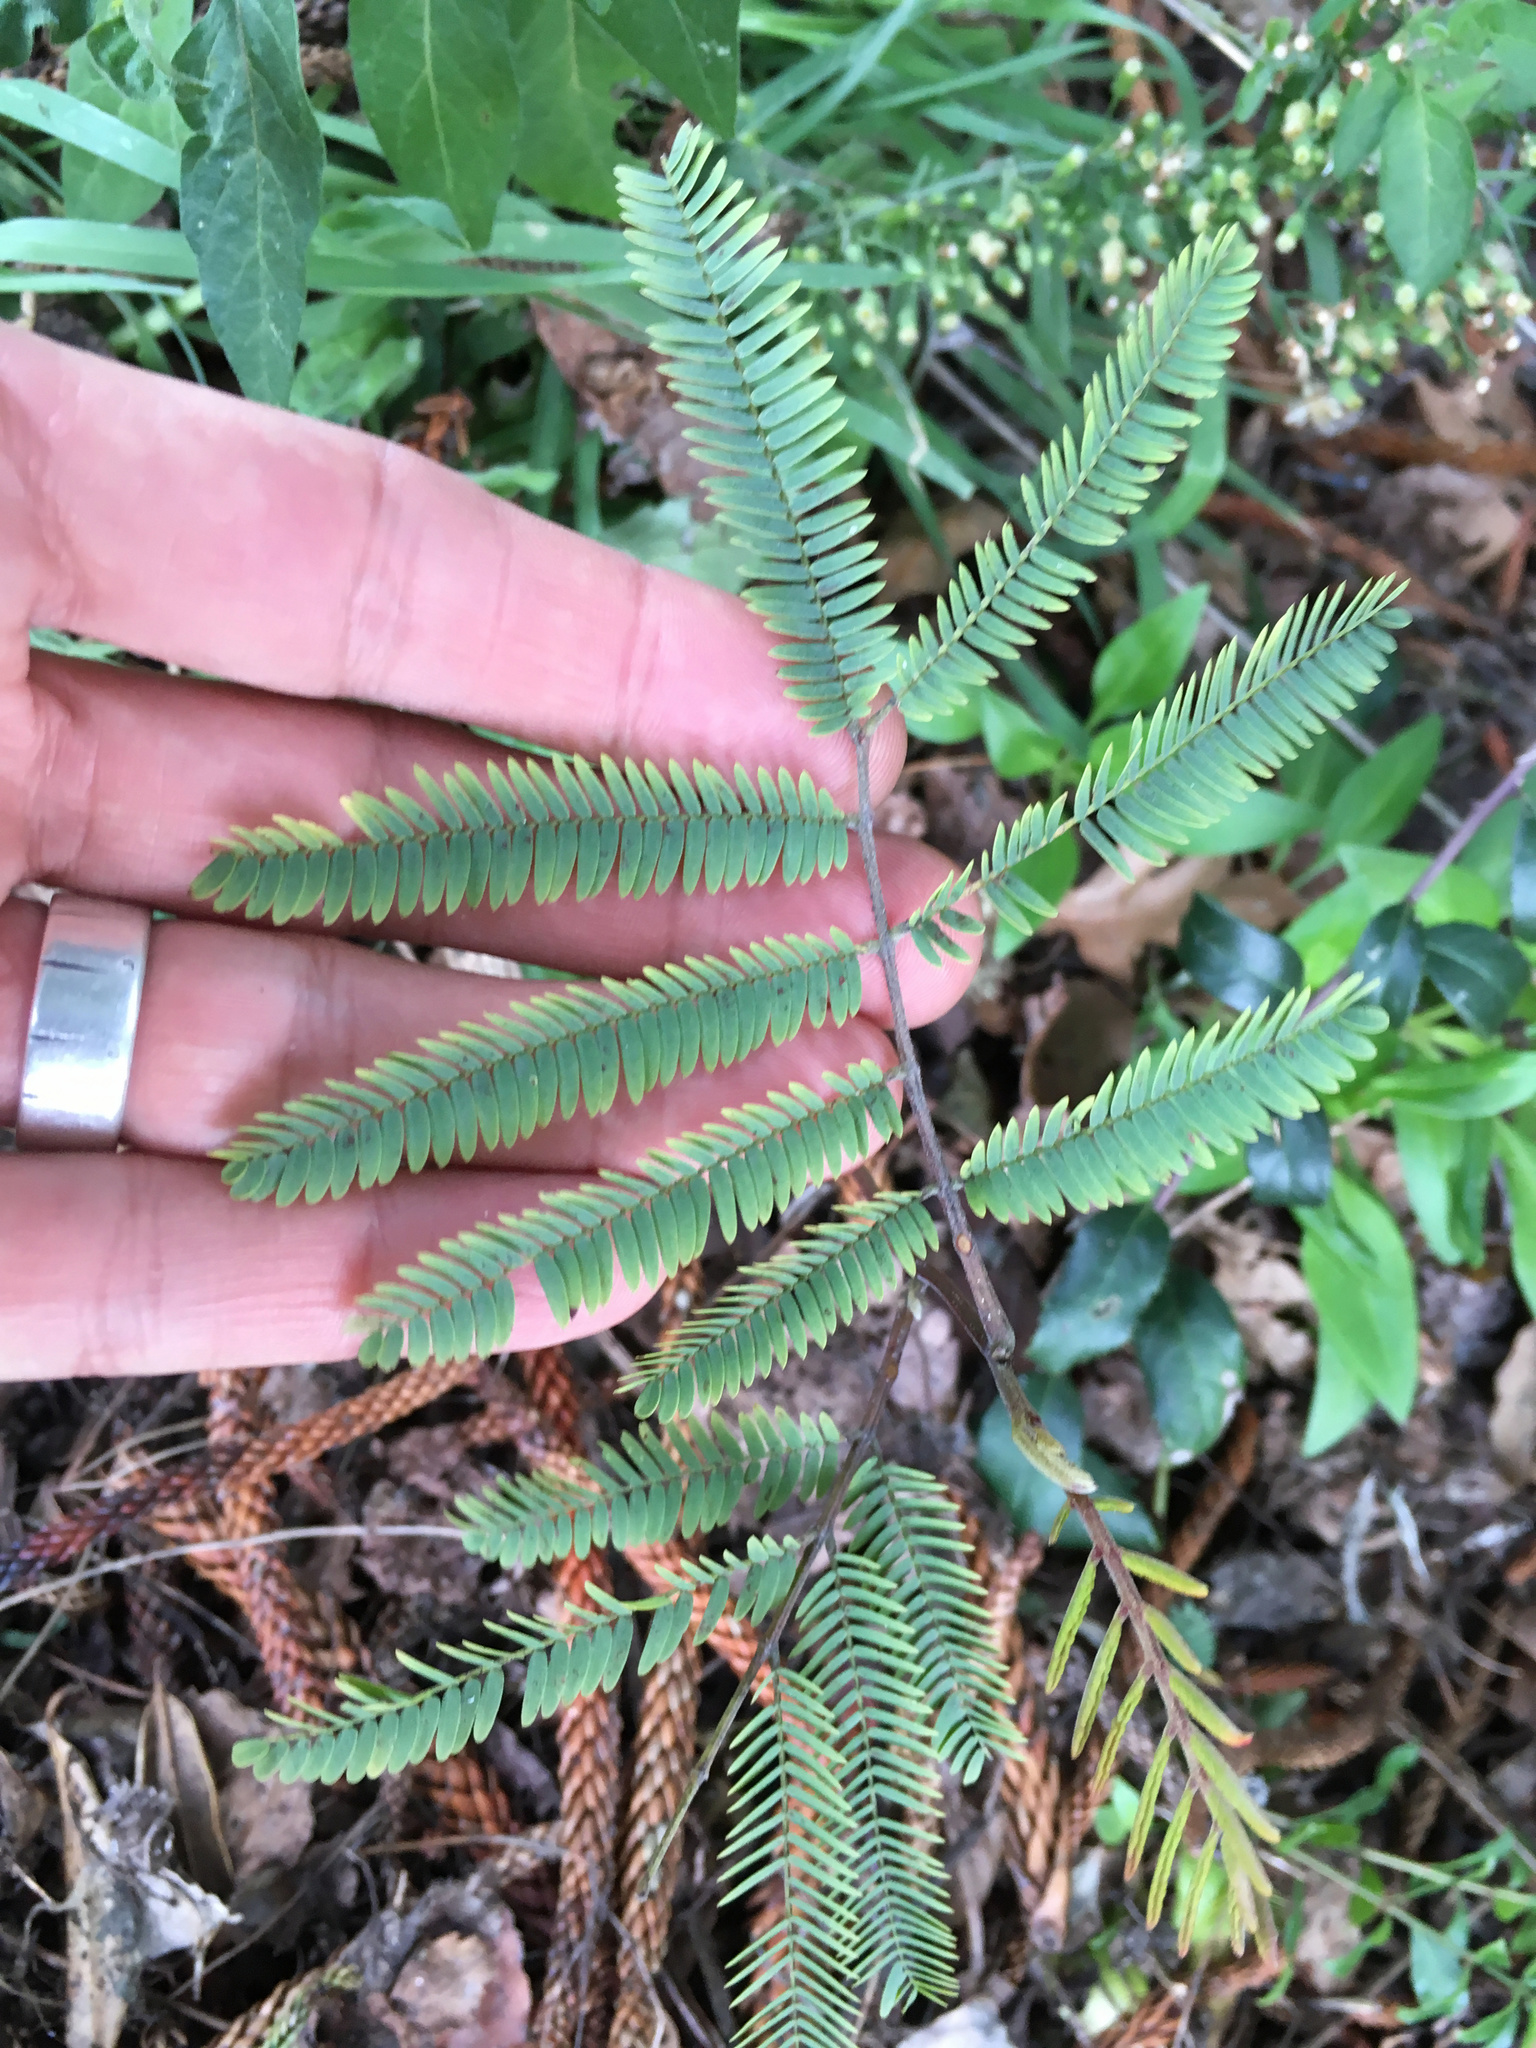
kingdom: Plantae
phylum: Tracheophyta
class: Magnoliopsida
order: Fabales
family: Fabaceae
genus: Paraserianthes
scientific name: Paraserianthes lophantha
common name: Plume albizia
